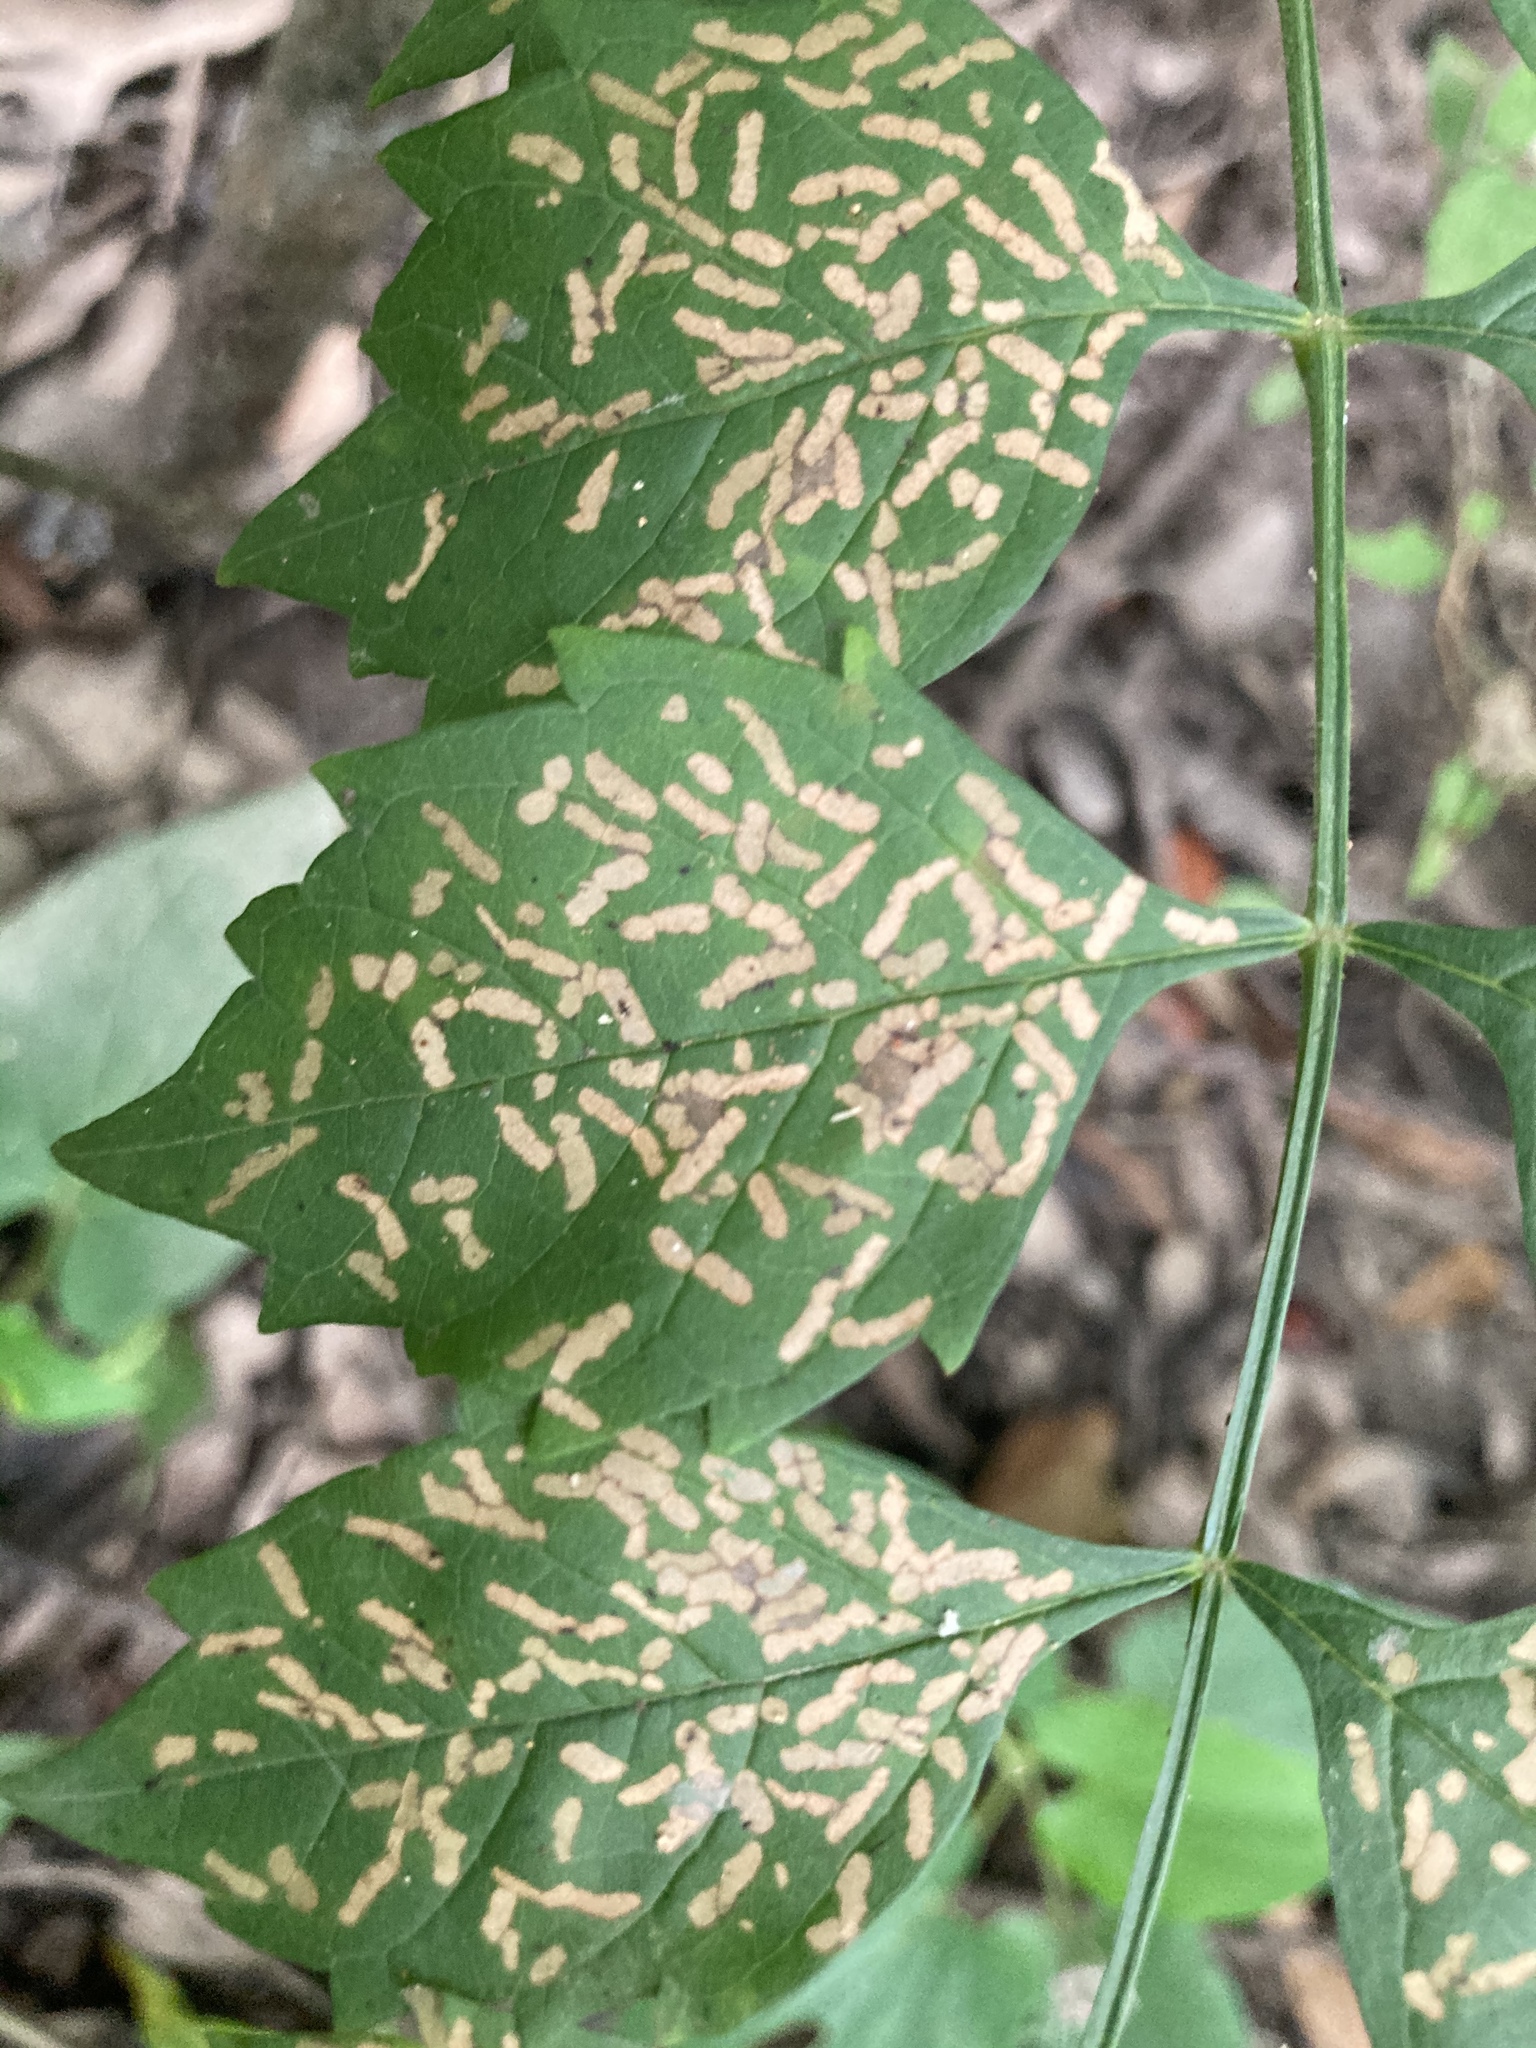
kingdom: Animalia
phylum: Arthropoda
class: Insecta
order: Coleoptera
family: Chrysomelidae
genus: Octotoma
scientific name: Octotoma plicatula
